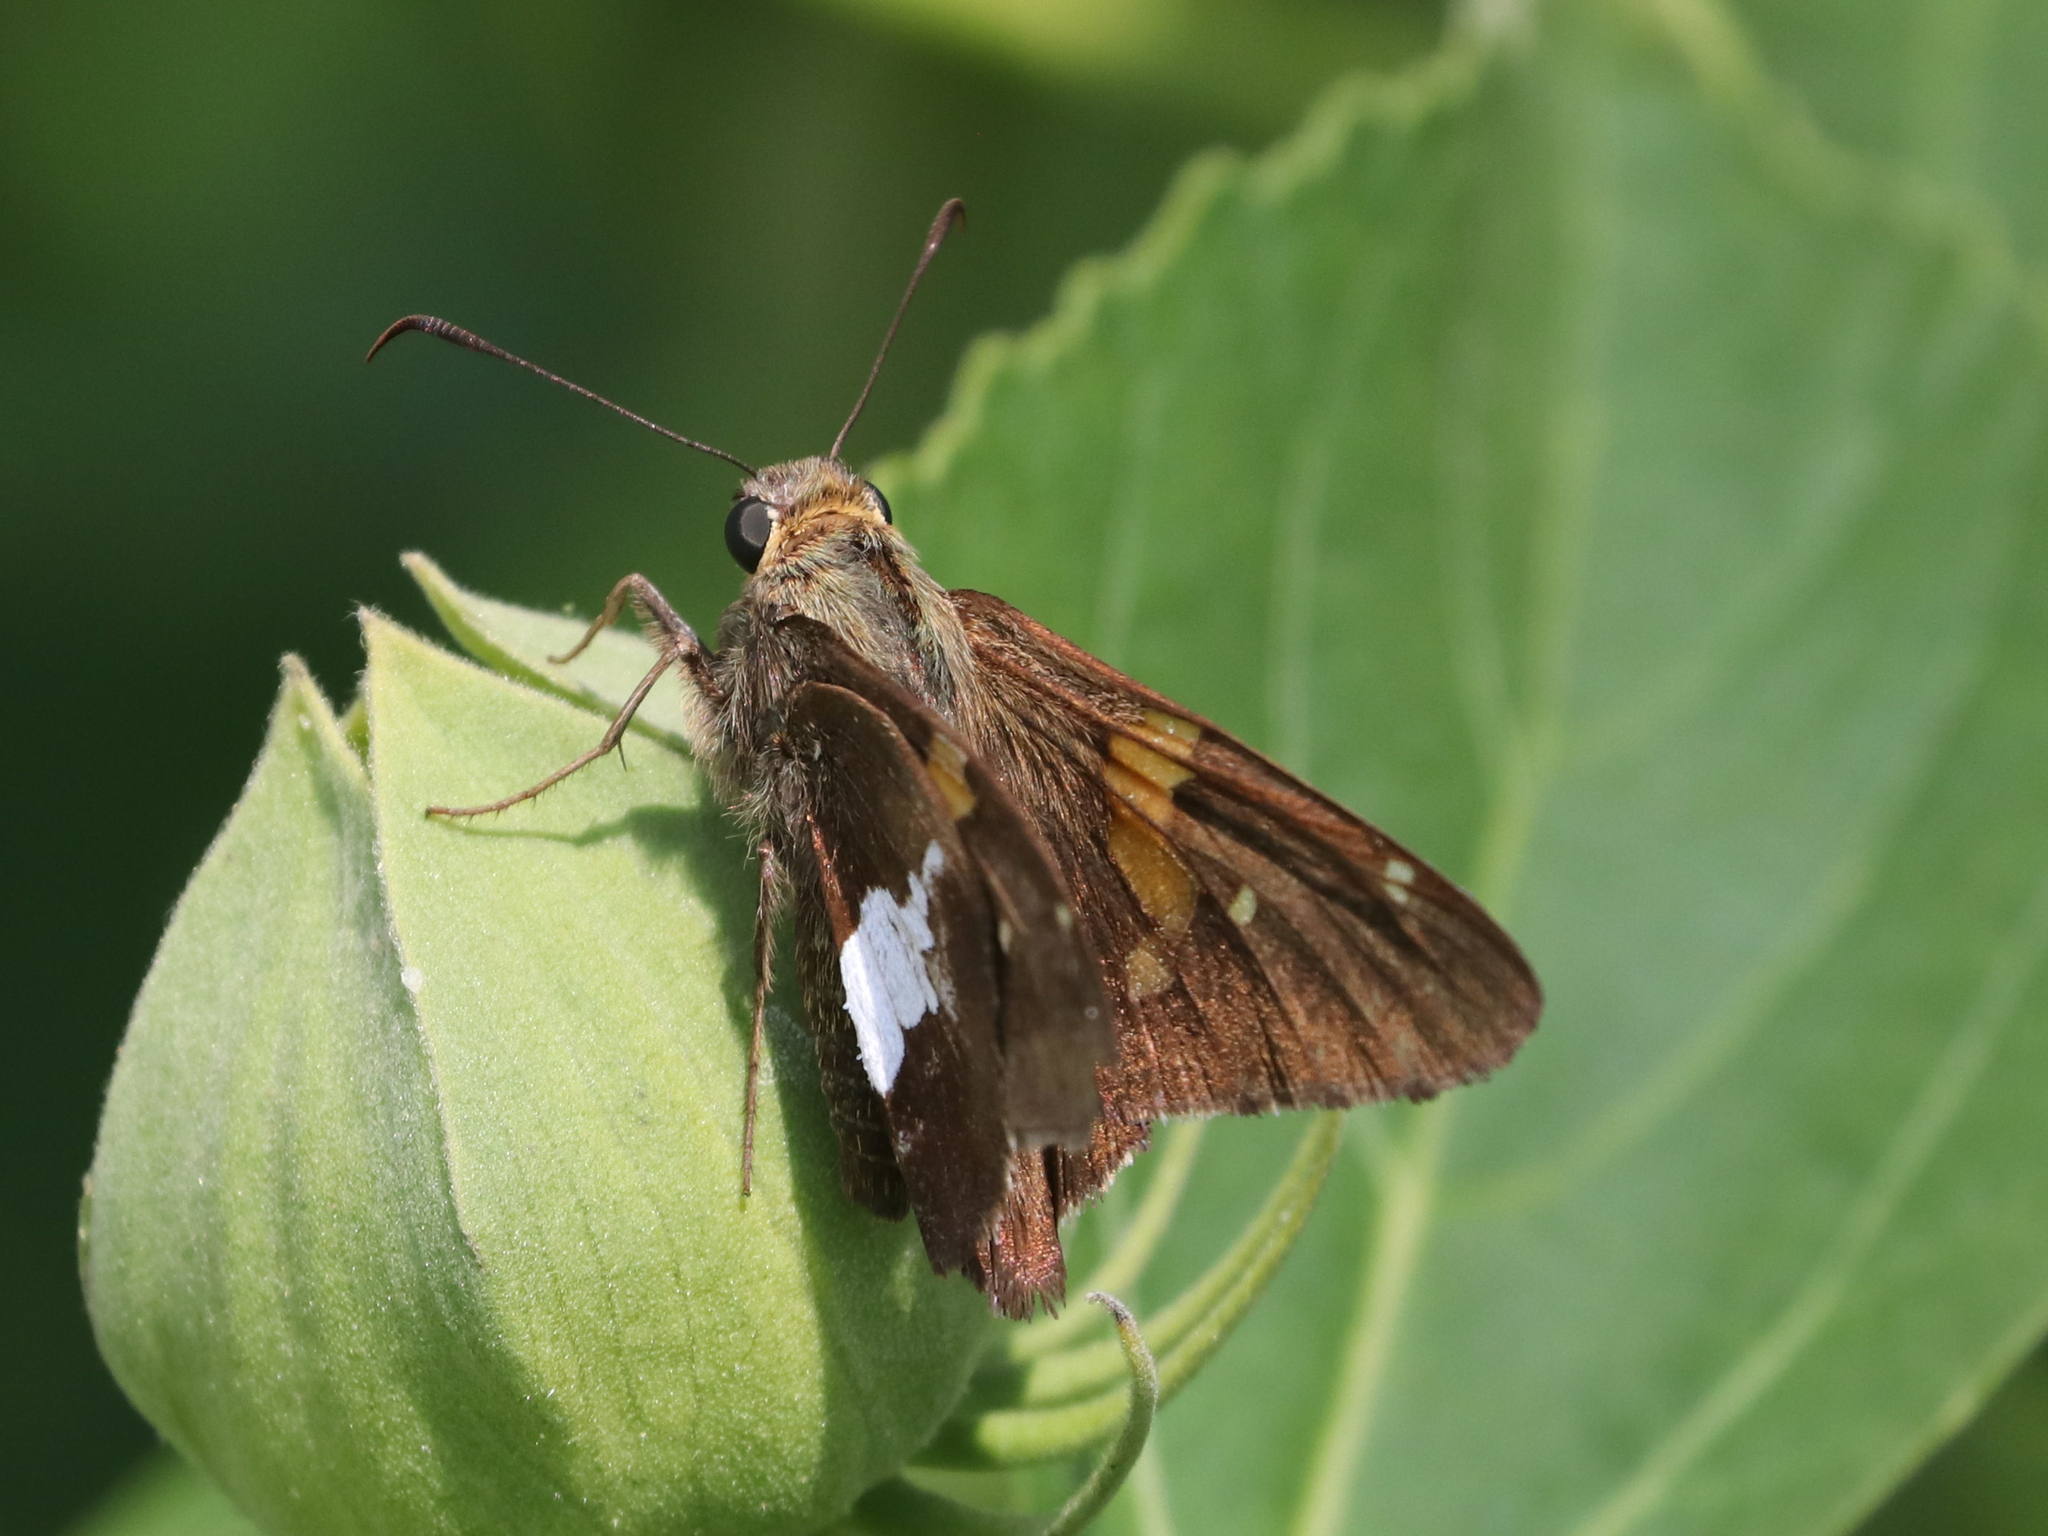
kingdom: Animalia
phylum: Arthropoda
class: Insecta
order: Lepidoptera
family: Hesperiidae
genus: Epargyreus
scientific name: Epargyreus clarus
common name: Silver-spotted skipper
